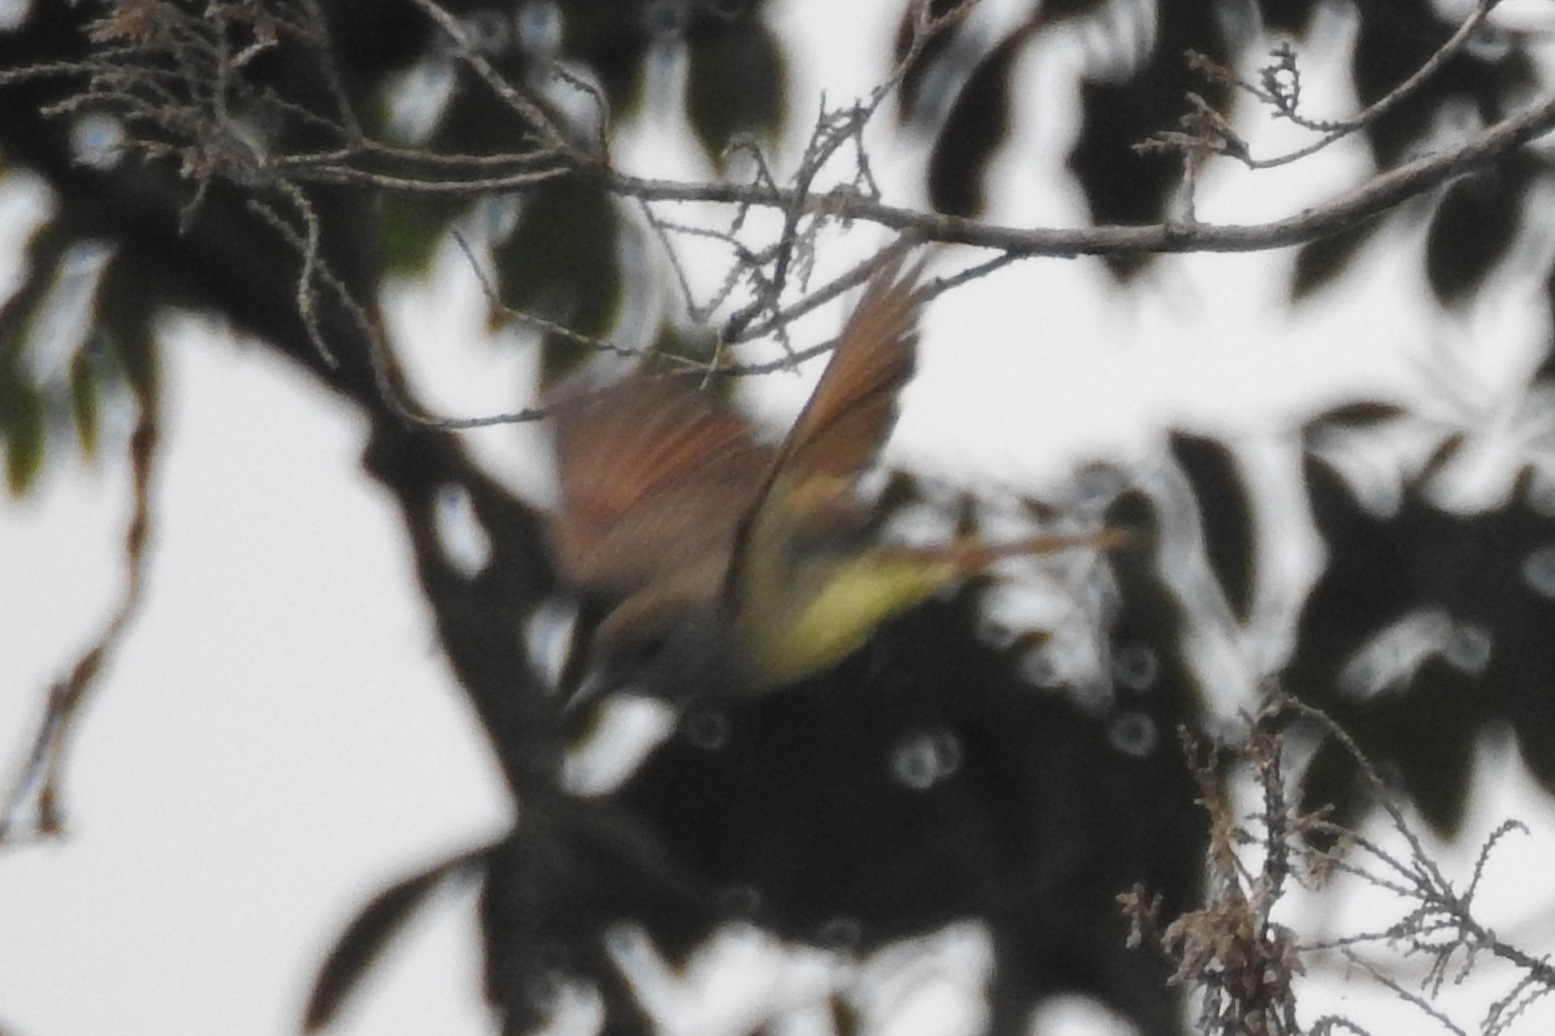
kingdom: Animalia
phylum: Chordata
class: Aves
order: Passeriformes
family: Tyrannidae
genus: Myiarchus
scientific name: Myiarchus crinitus
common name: Great crested flycatcher
